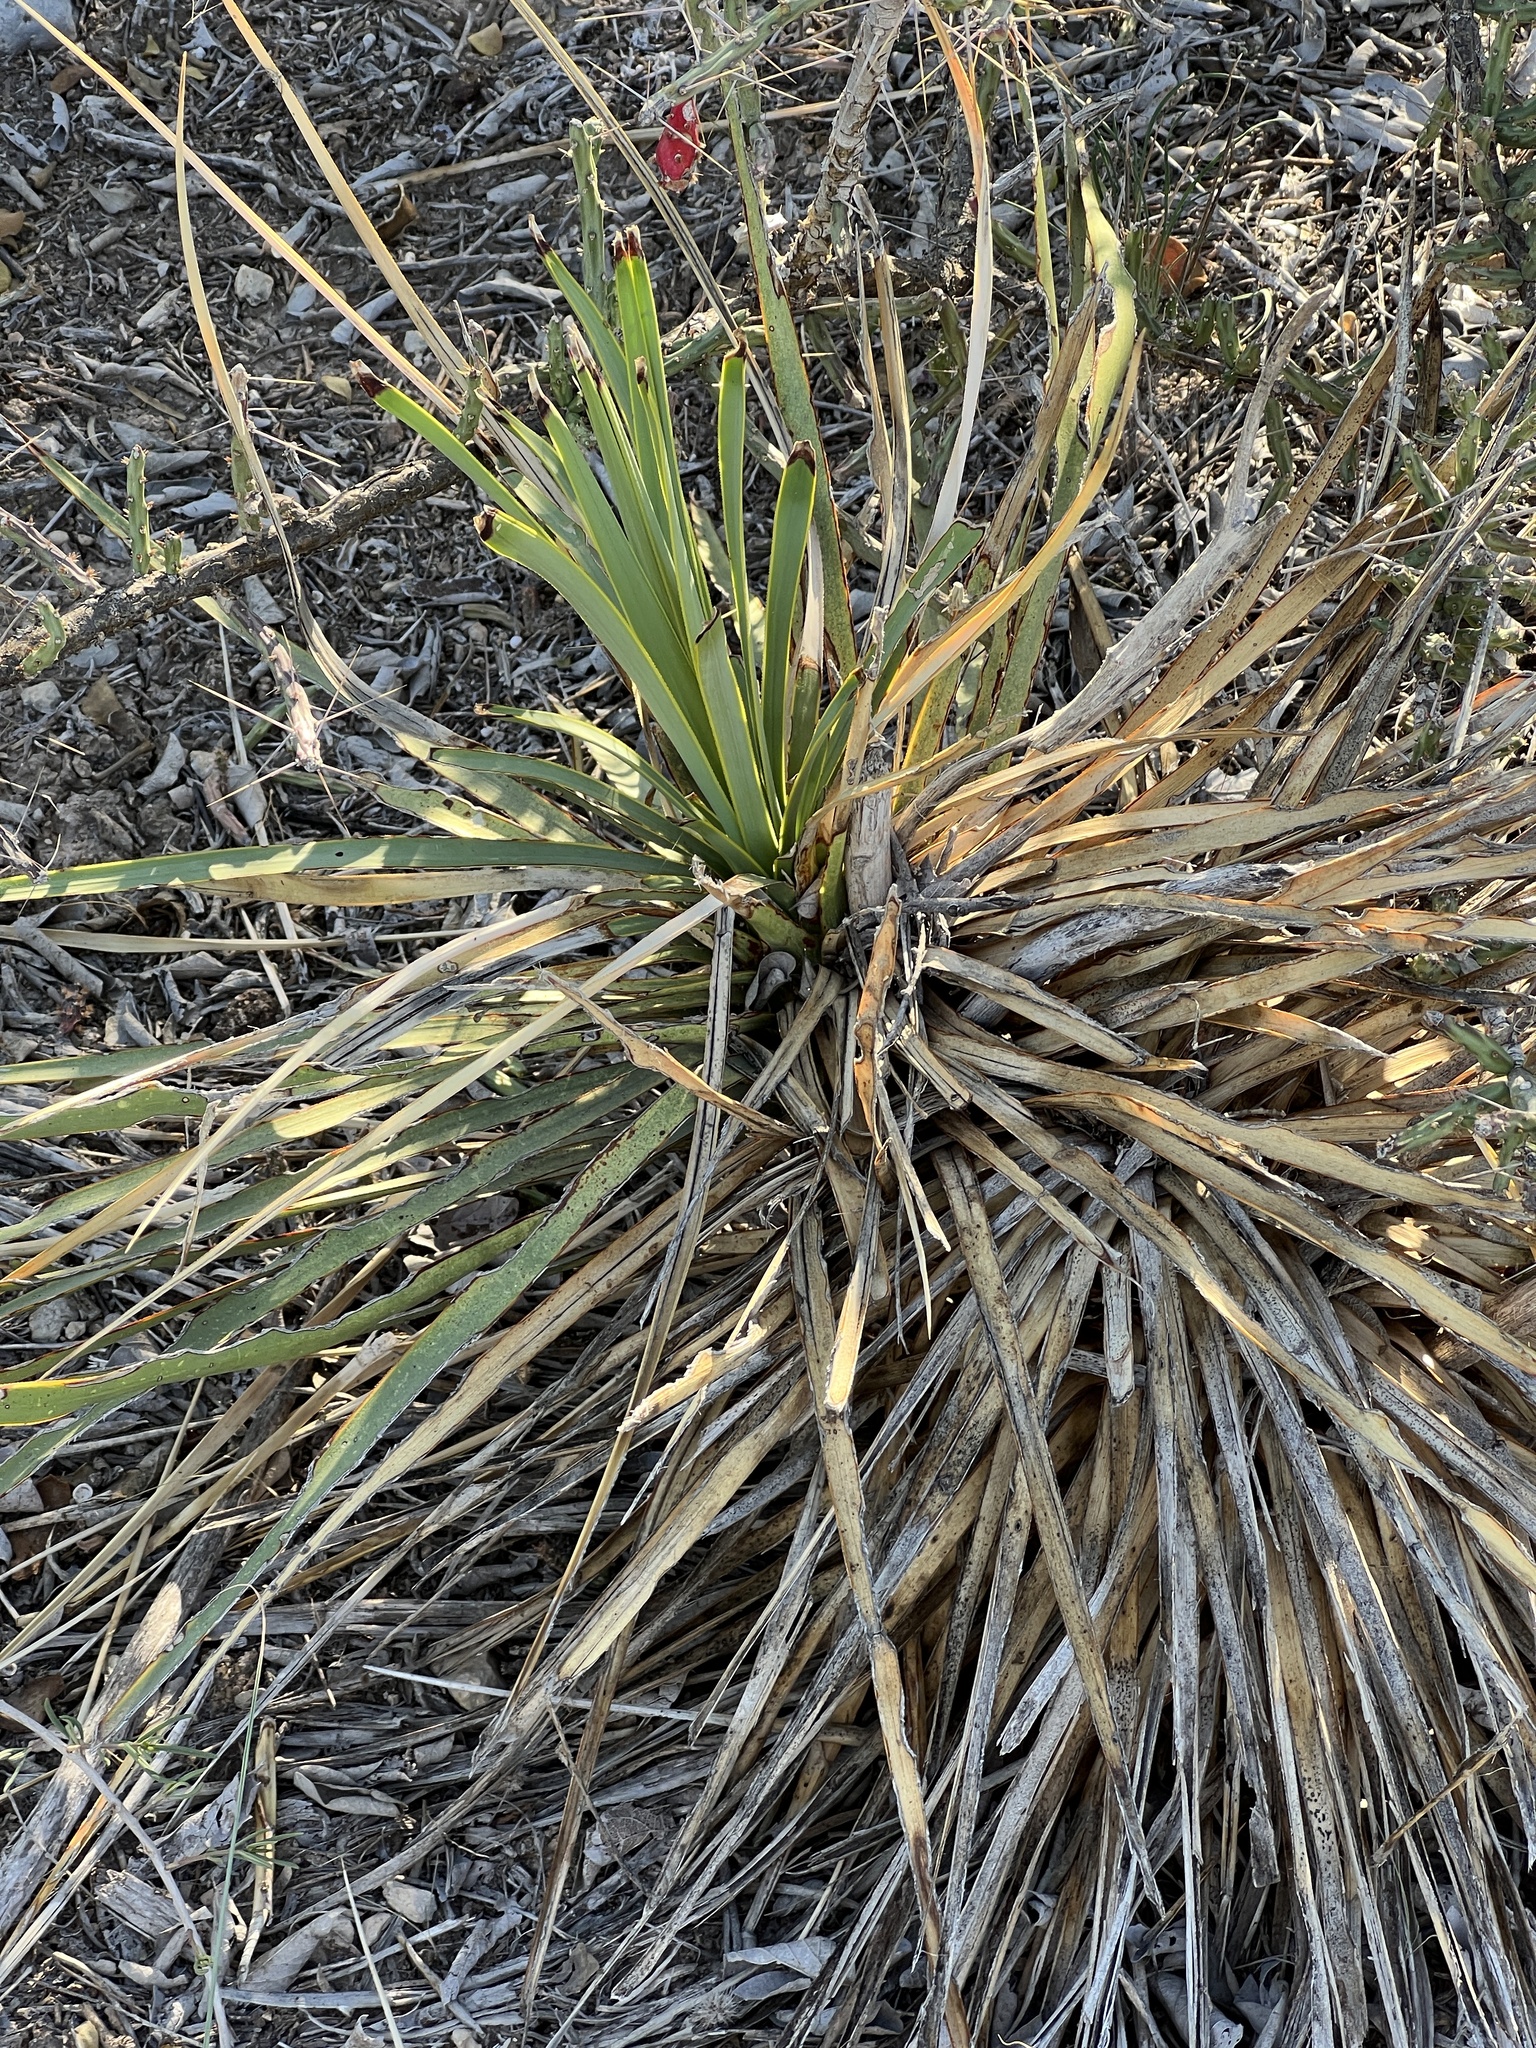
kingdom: Plantae
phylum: Tracheophyta
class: Liliopsida
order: Asparagales
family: Asparagaceae
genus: Yucca
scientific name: Yucca reverchonii
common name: San angelo yucca
